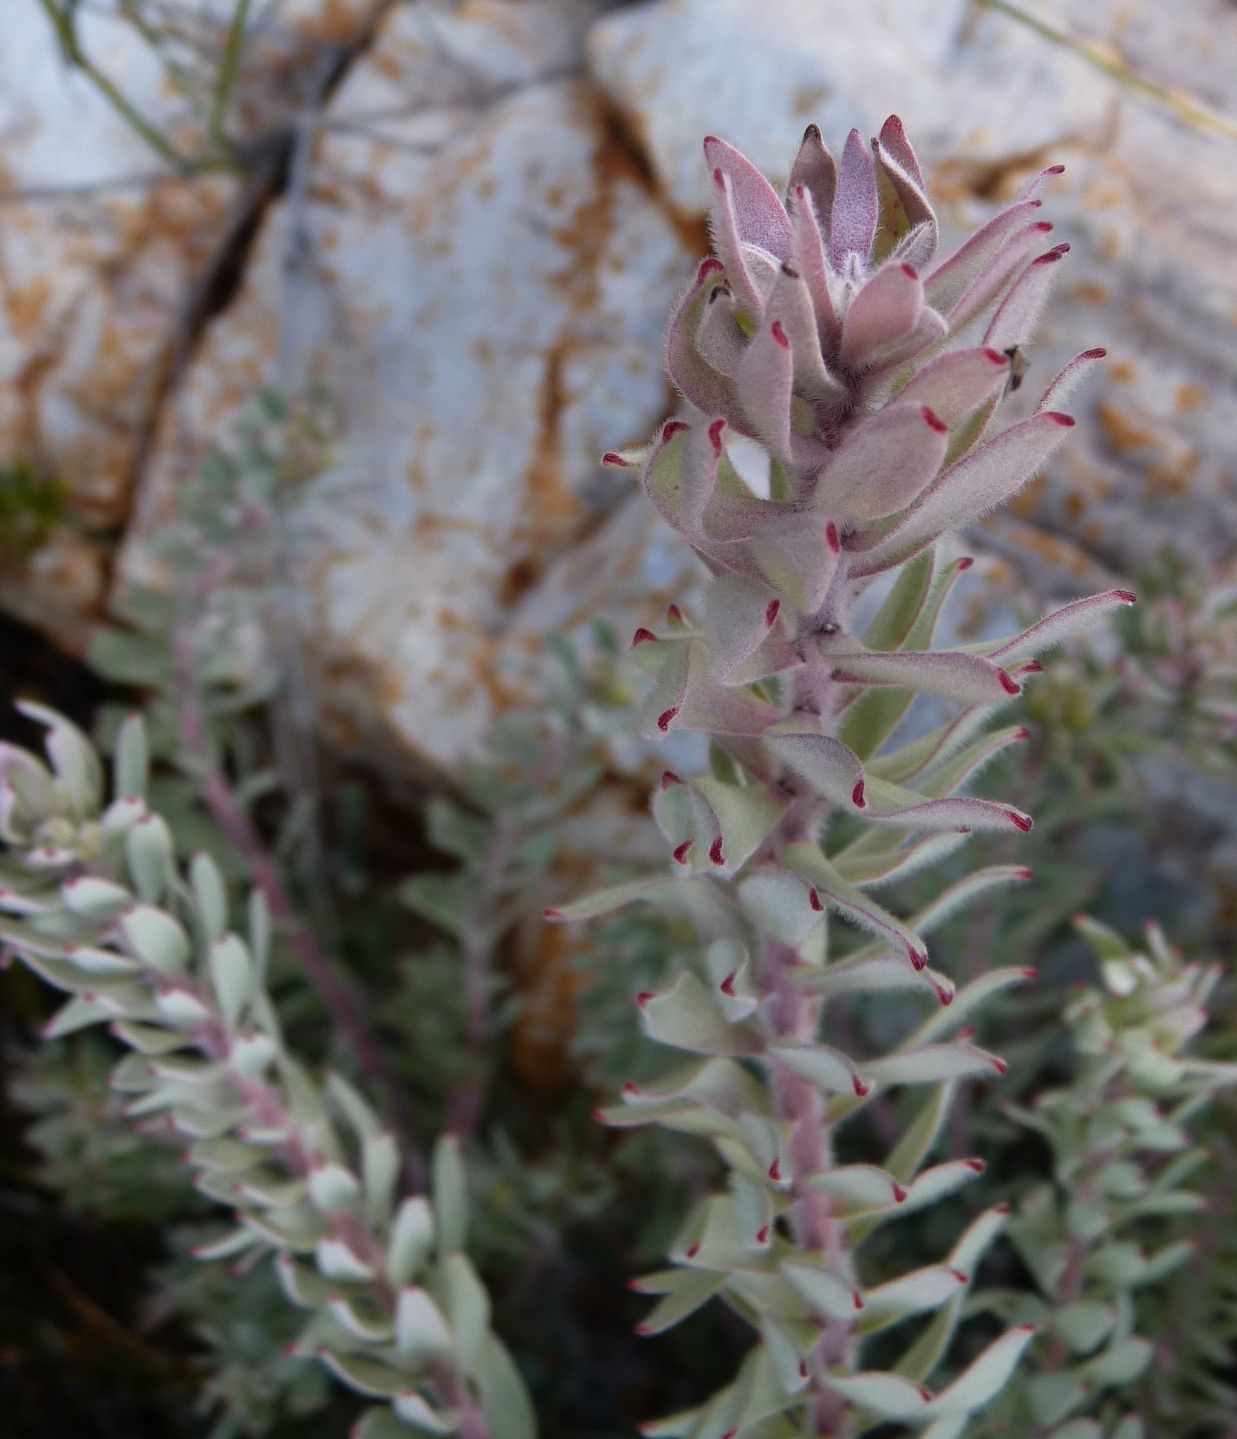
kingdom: Plantae
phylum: Tracheophyta
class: Magnoliopsida
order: Proteales
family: Proteaceae
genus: Leucospermum
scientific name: Leucospermum wittebergense
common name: Swartberg pincushion
